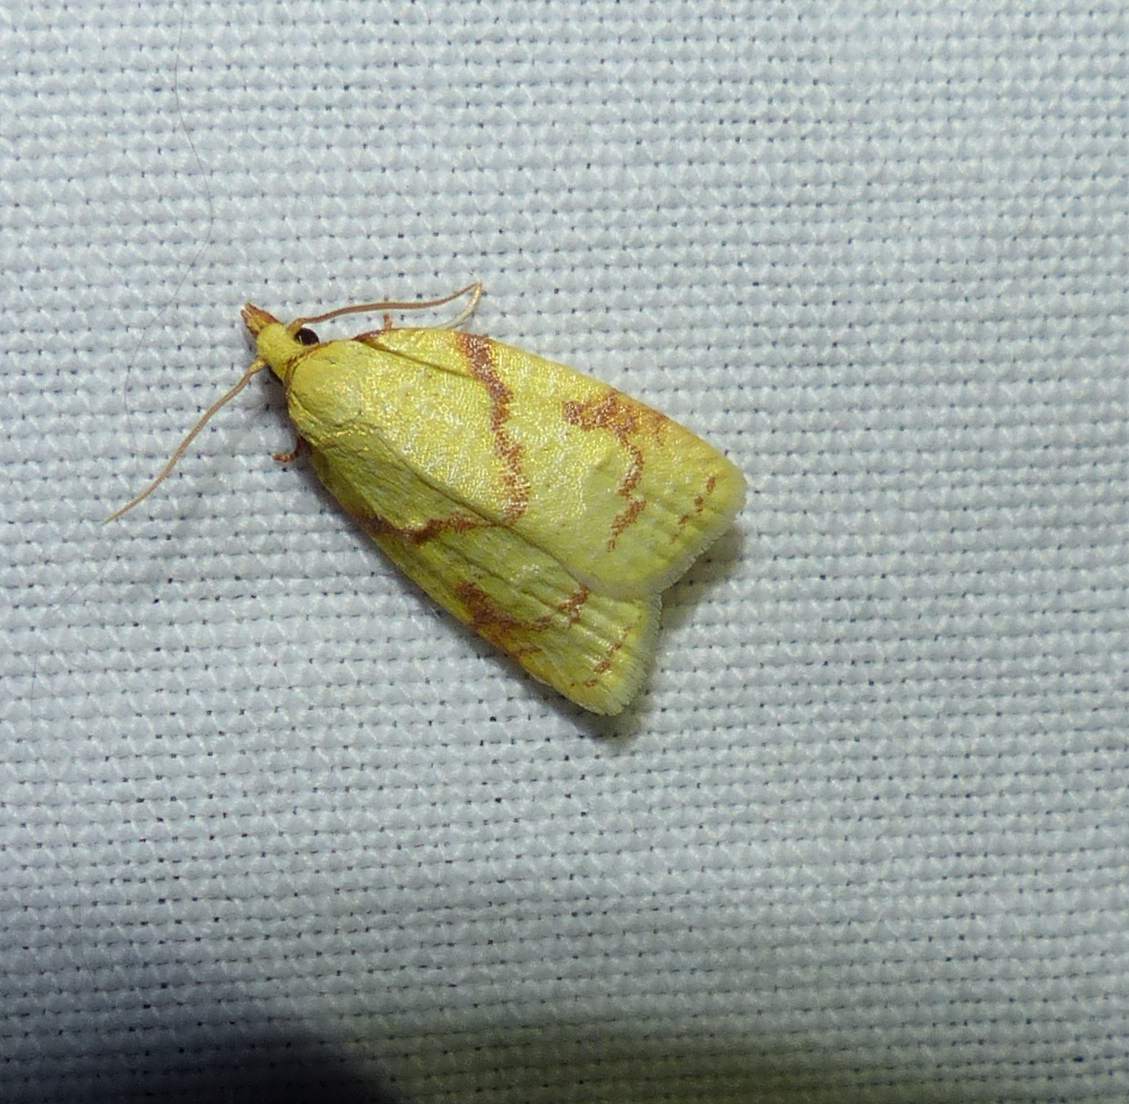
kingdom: Animalia
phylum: Arthropoda
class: Insecta
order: Lepidoptera
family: Tortricidae
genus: Cenopis
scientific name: Cenopis pettitana
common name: Maple-basswood leafroller moth
